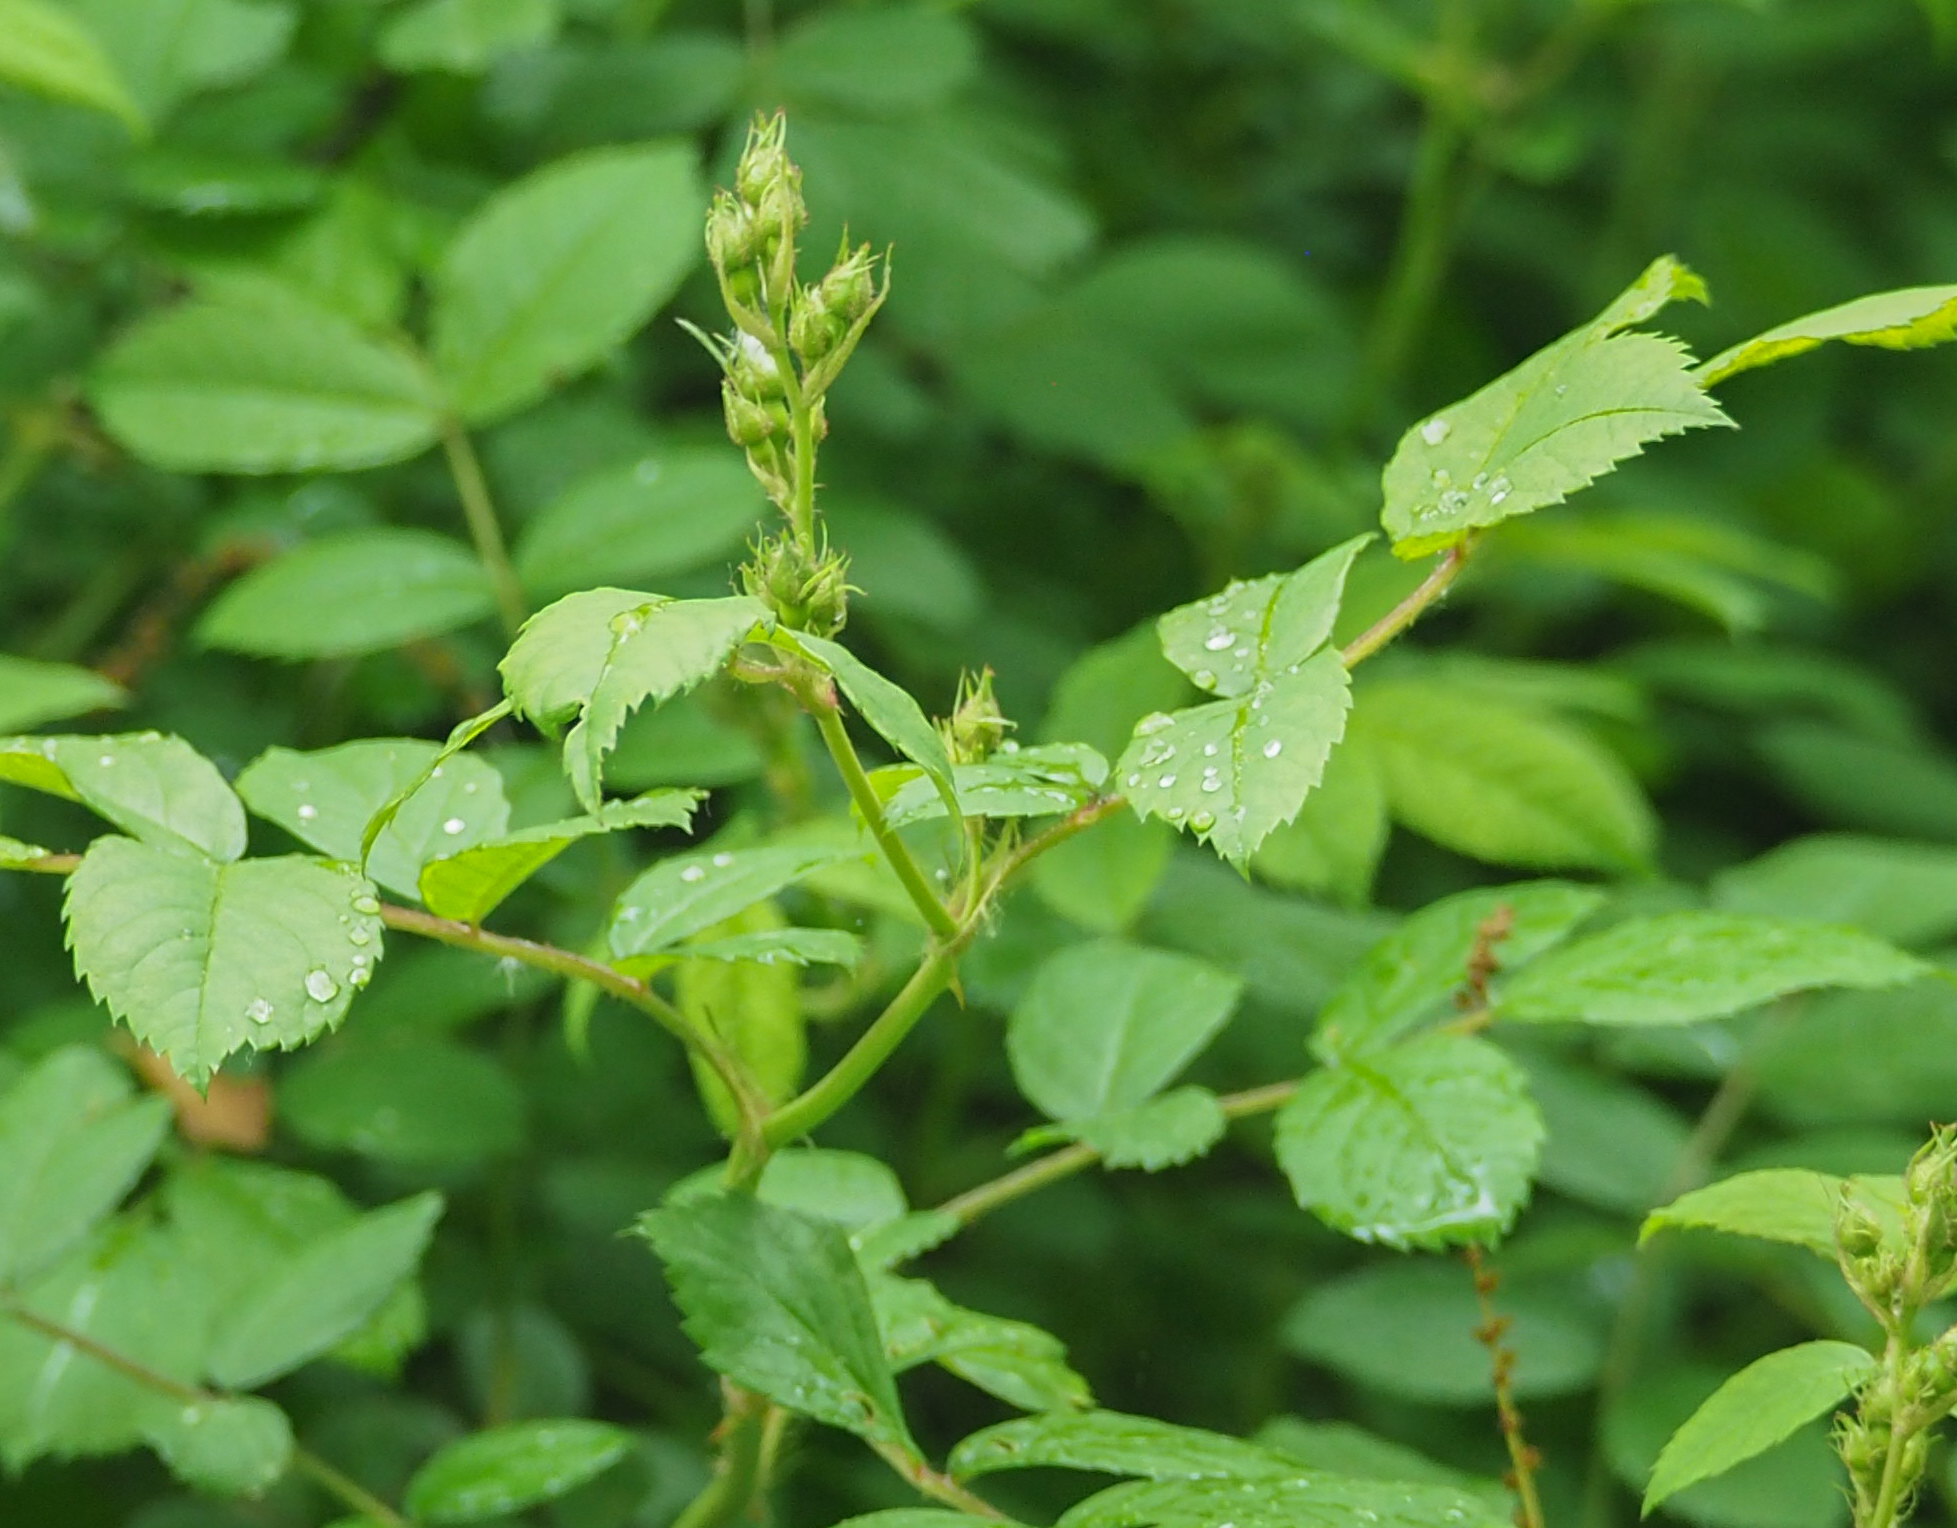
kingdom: Plantae
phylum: Tracheophyta
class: Magnoliopsida
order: Rosales
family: Rosaceae
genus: Rosa
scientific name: Rosa multiflora
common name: Multiflora rose
